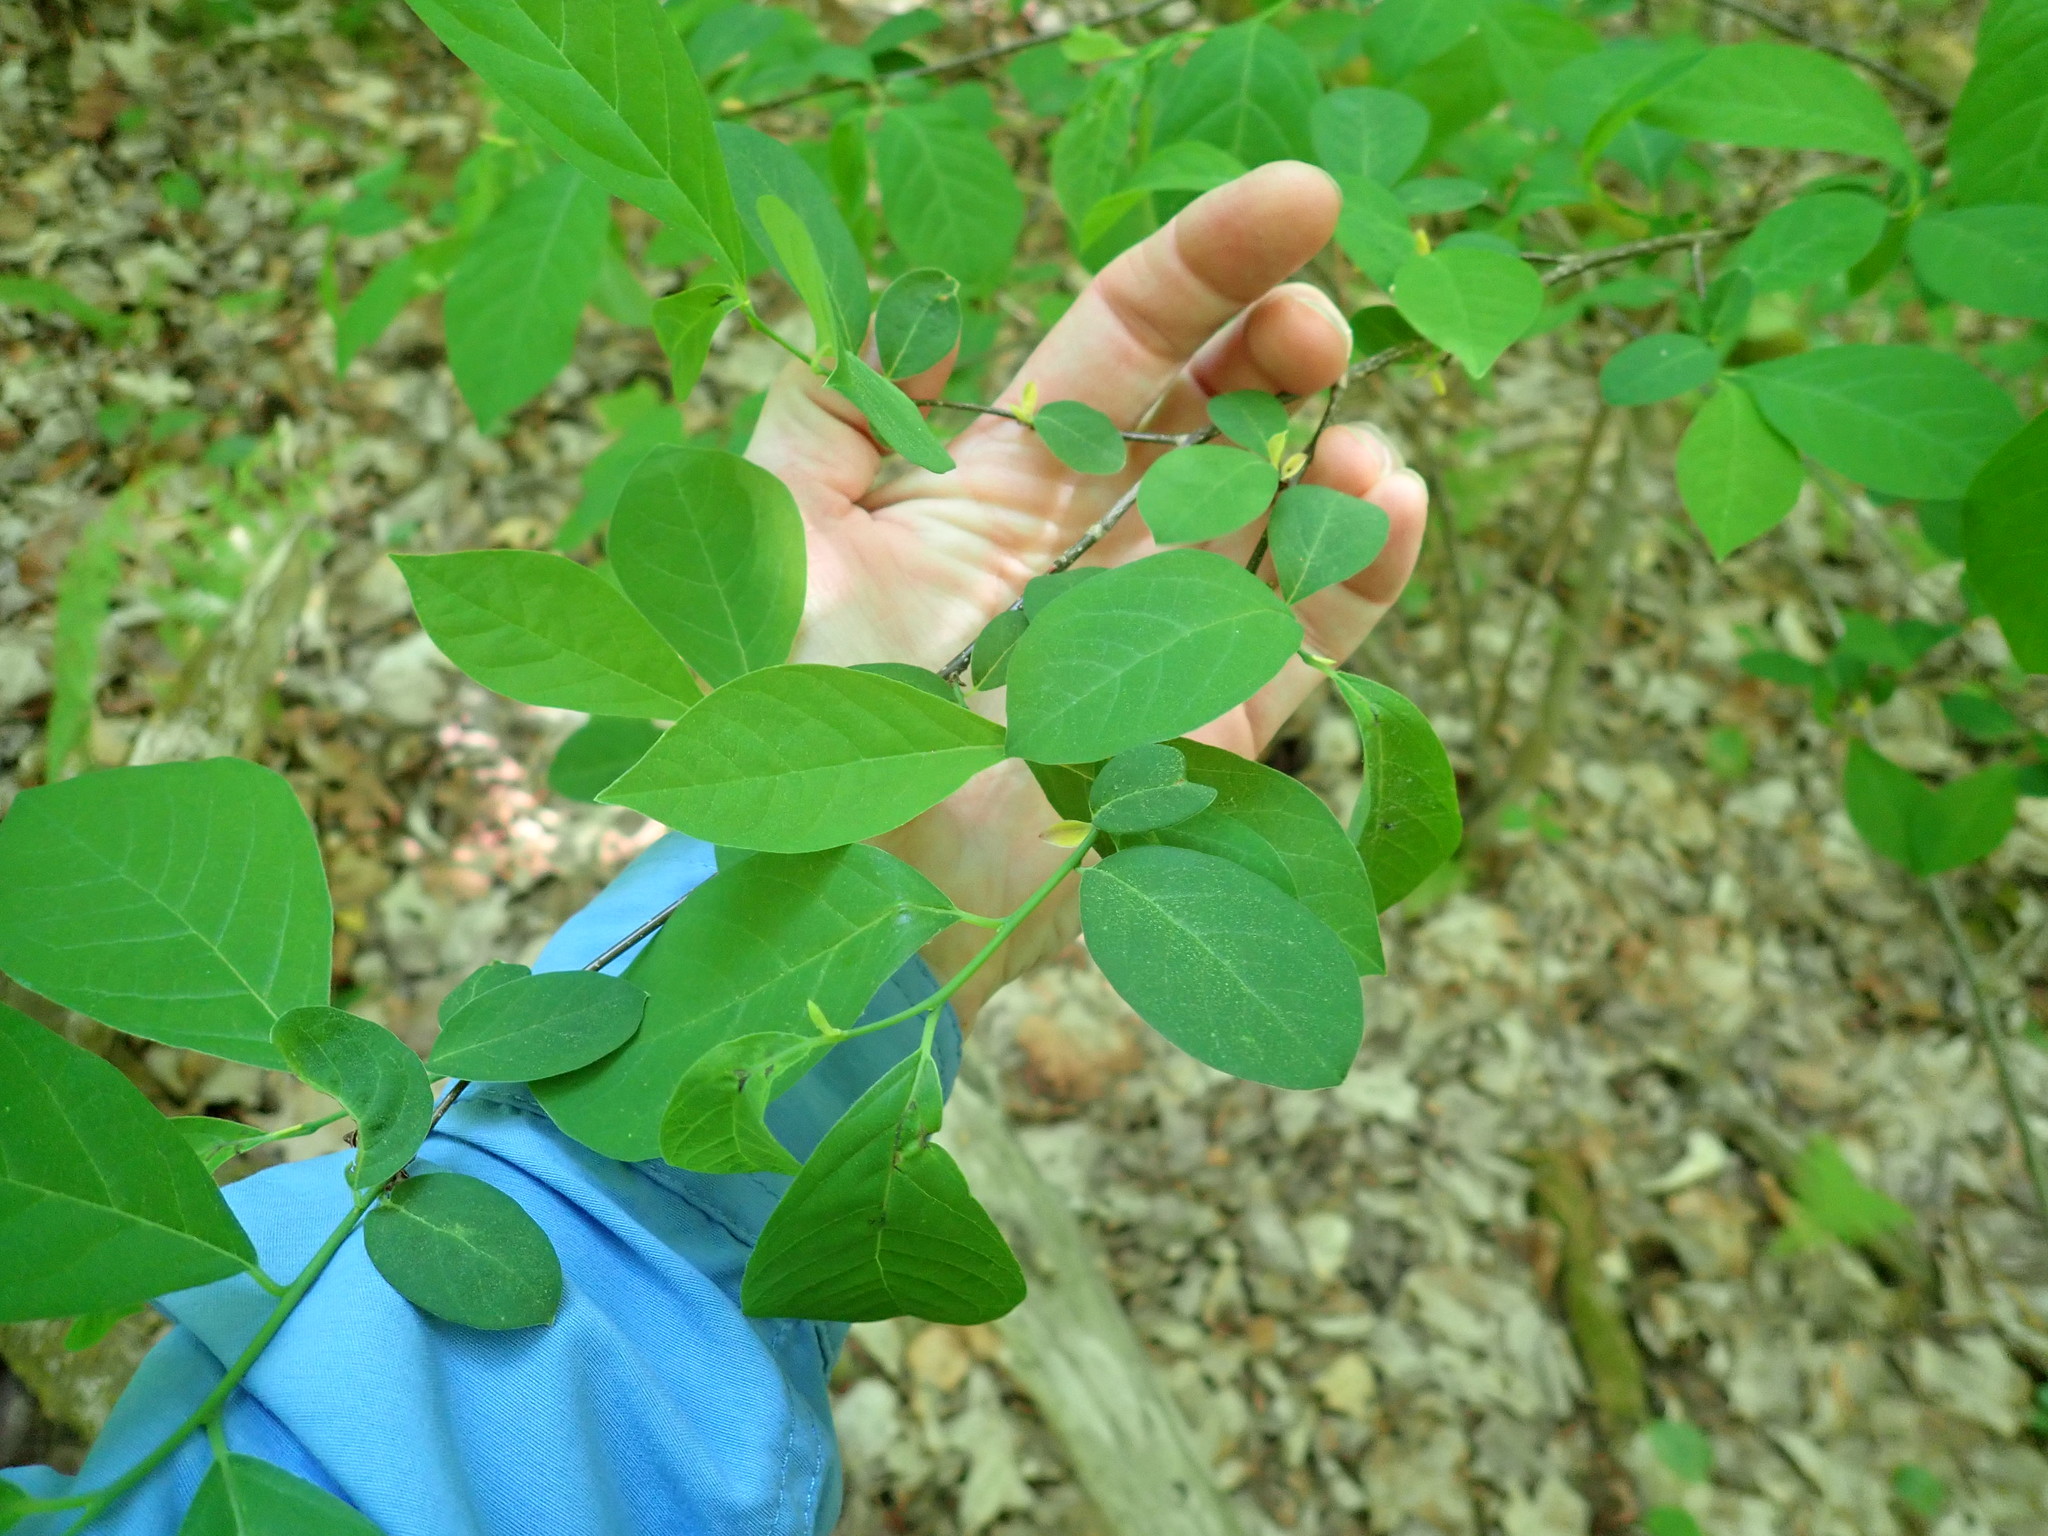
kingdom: Plantae
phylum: Tracheophyta
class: Magnoliopsida
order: Laurales
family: Lauraceae
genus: Lindera
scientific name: Lindera benzoin
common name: Spicebush
